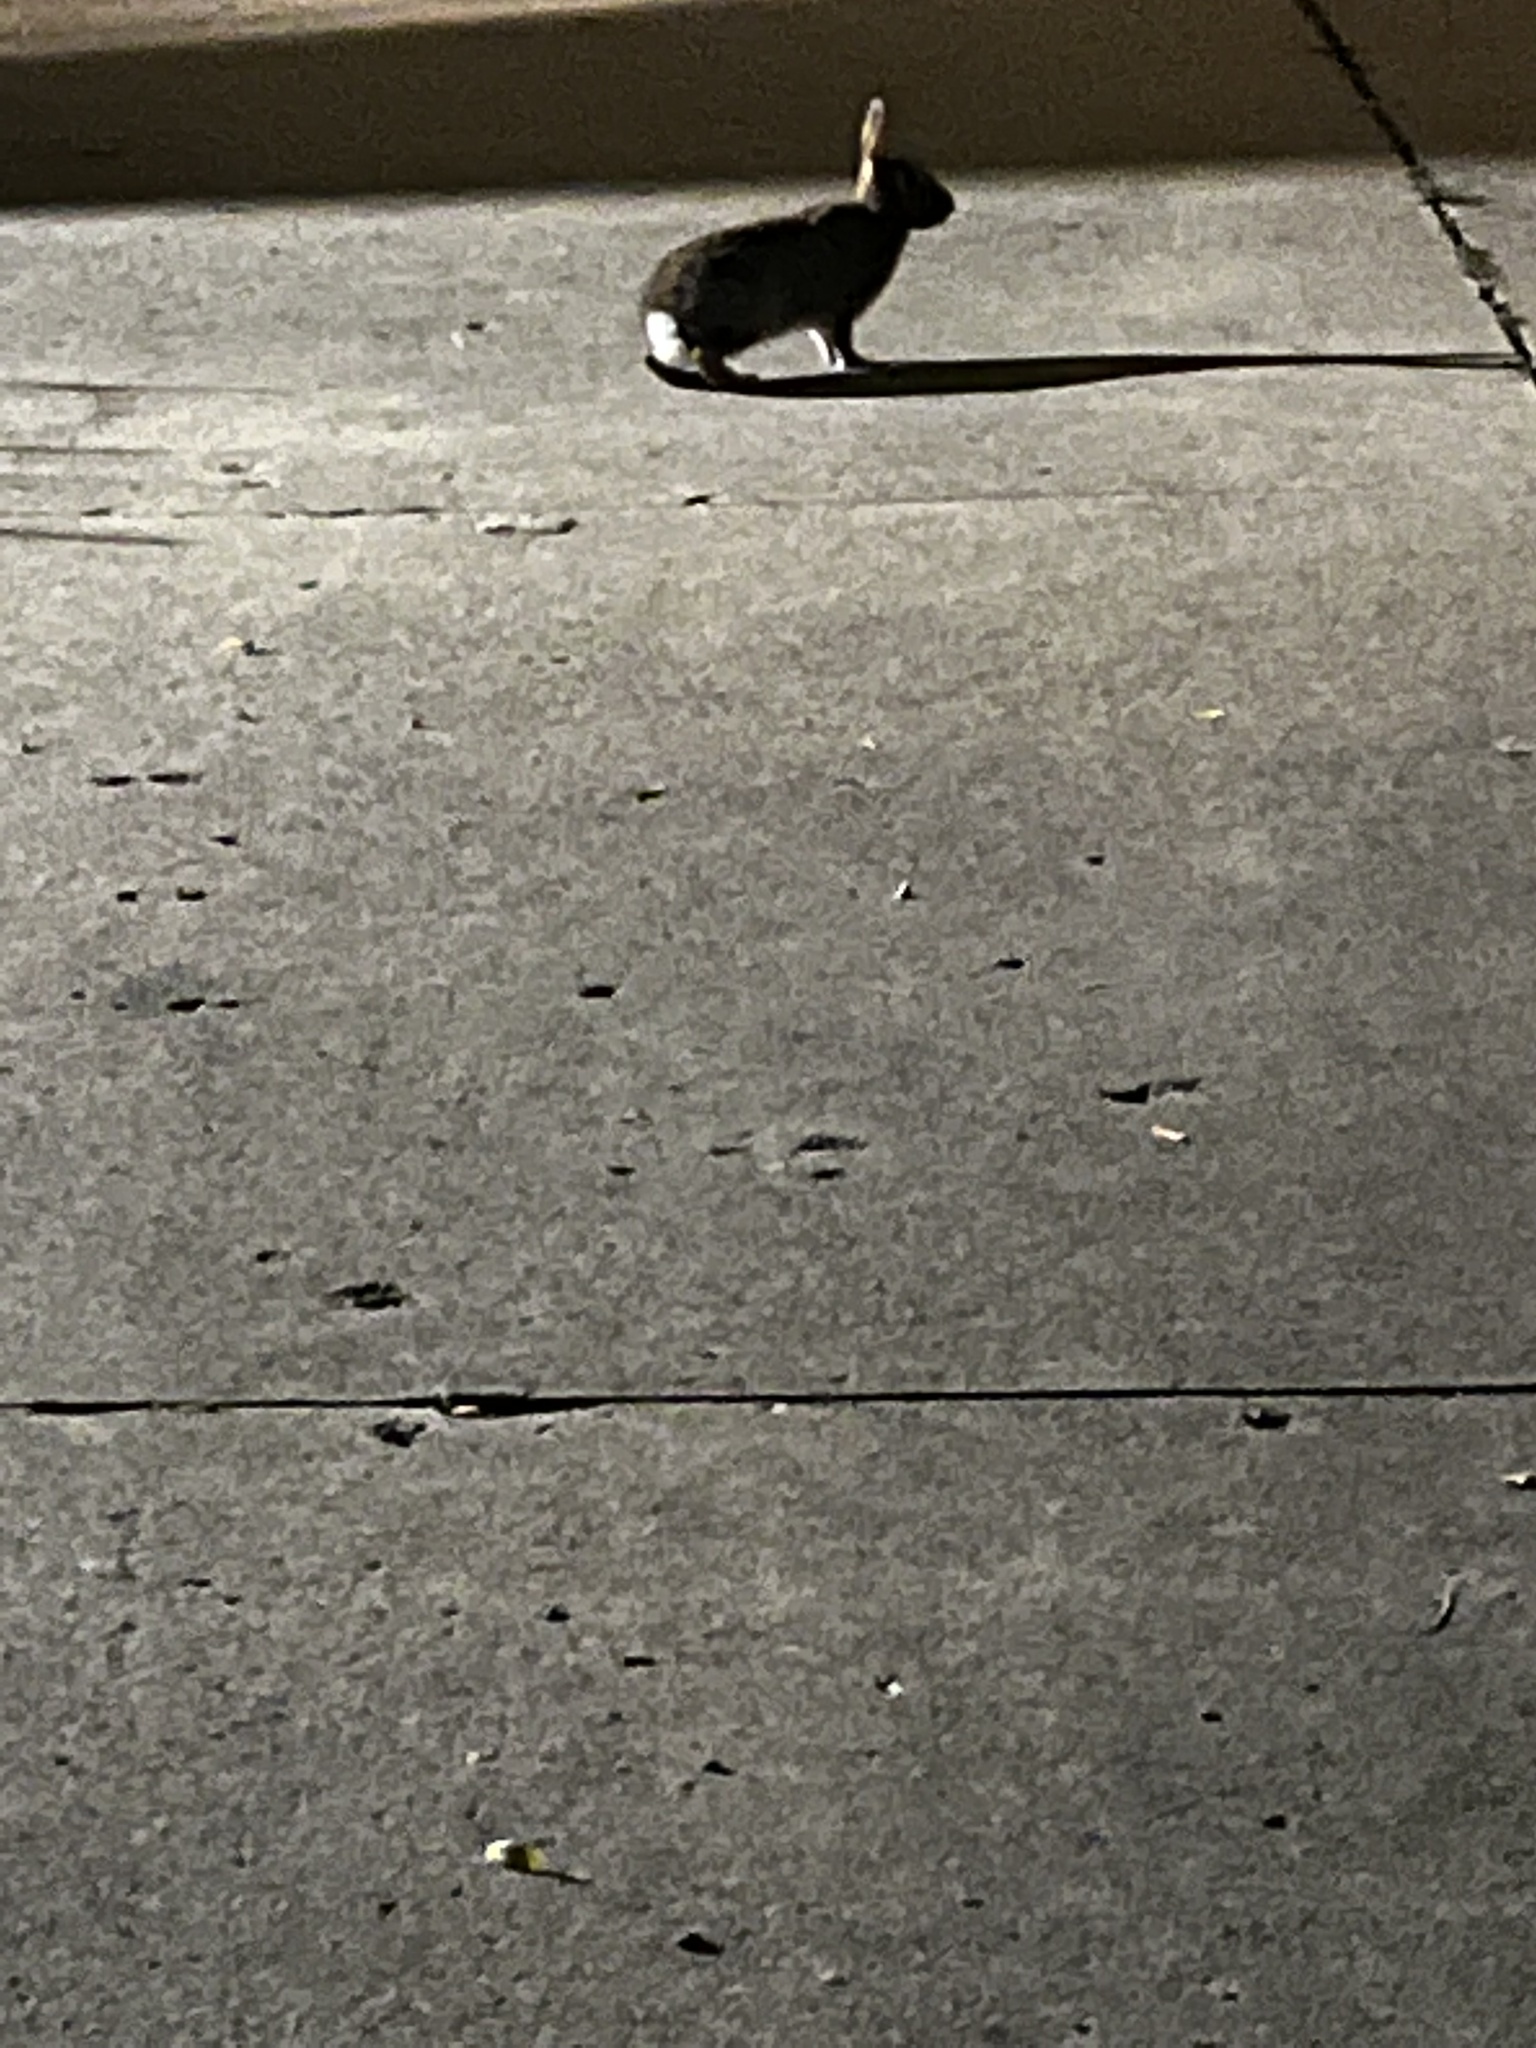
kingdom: Animalia
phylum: Chordata
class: Mammalia
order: Lagomorpha
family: Leporidae
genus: Sylvilagus
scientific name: Sylvilagus floridanus
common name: Eastern cottontail
